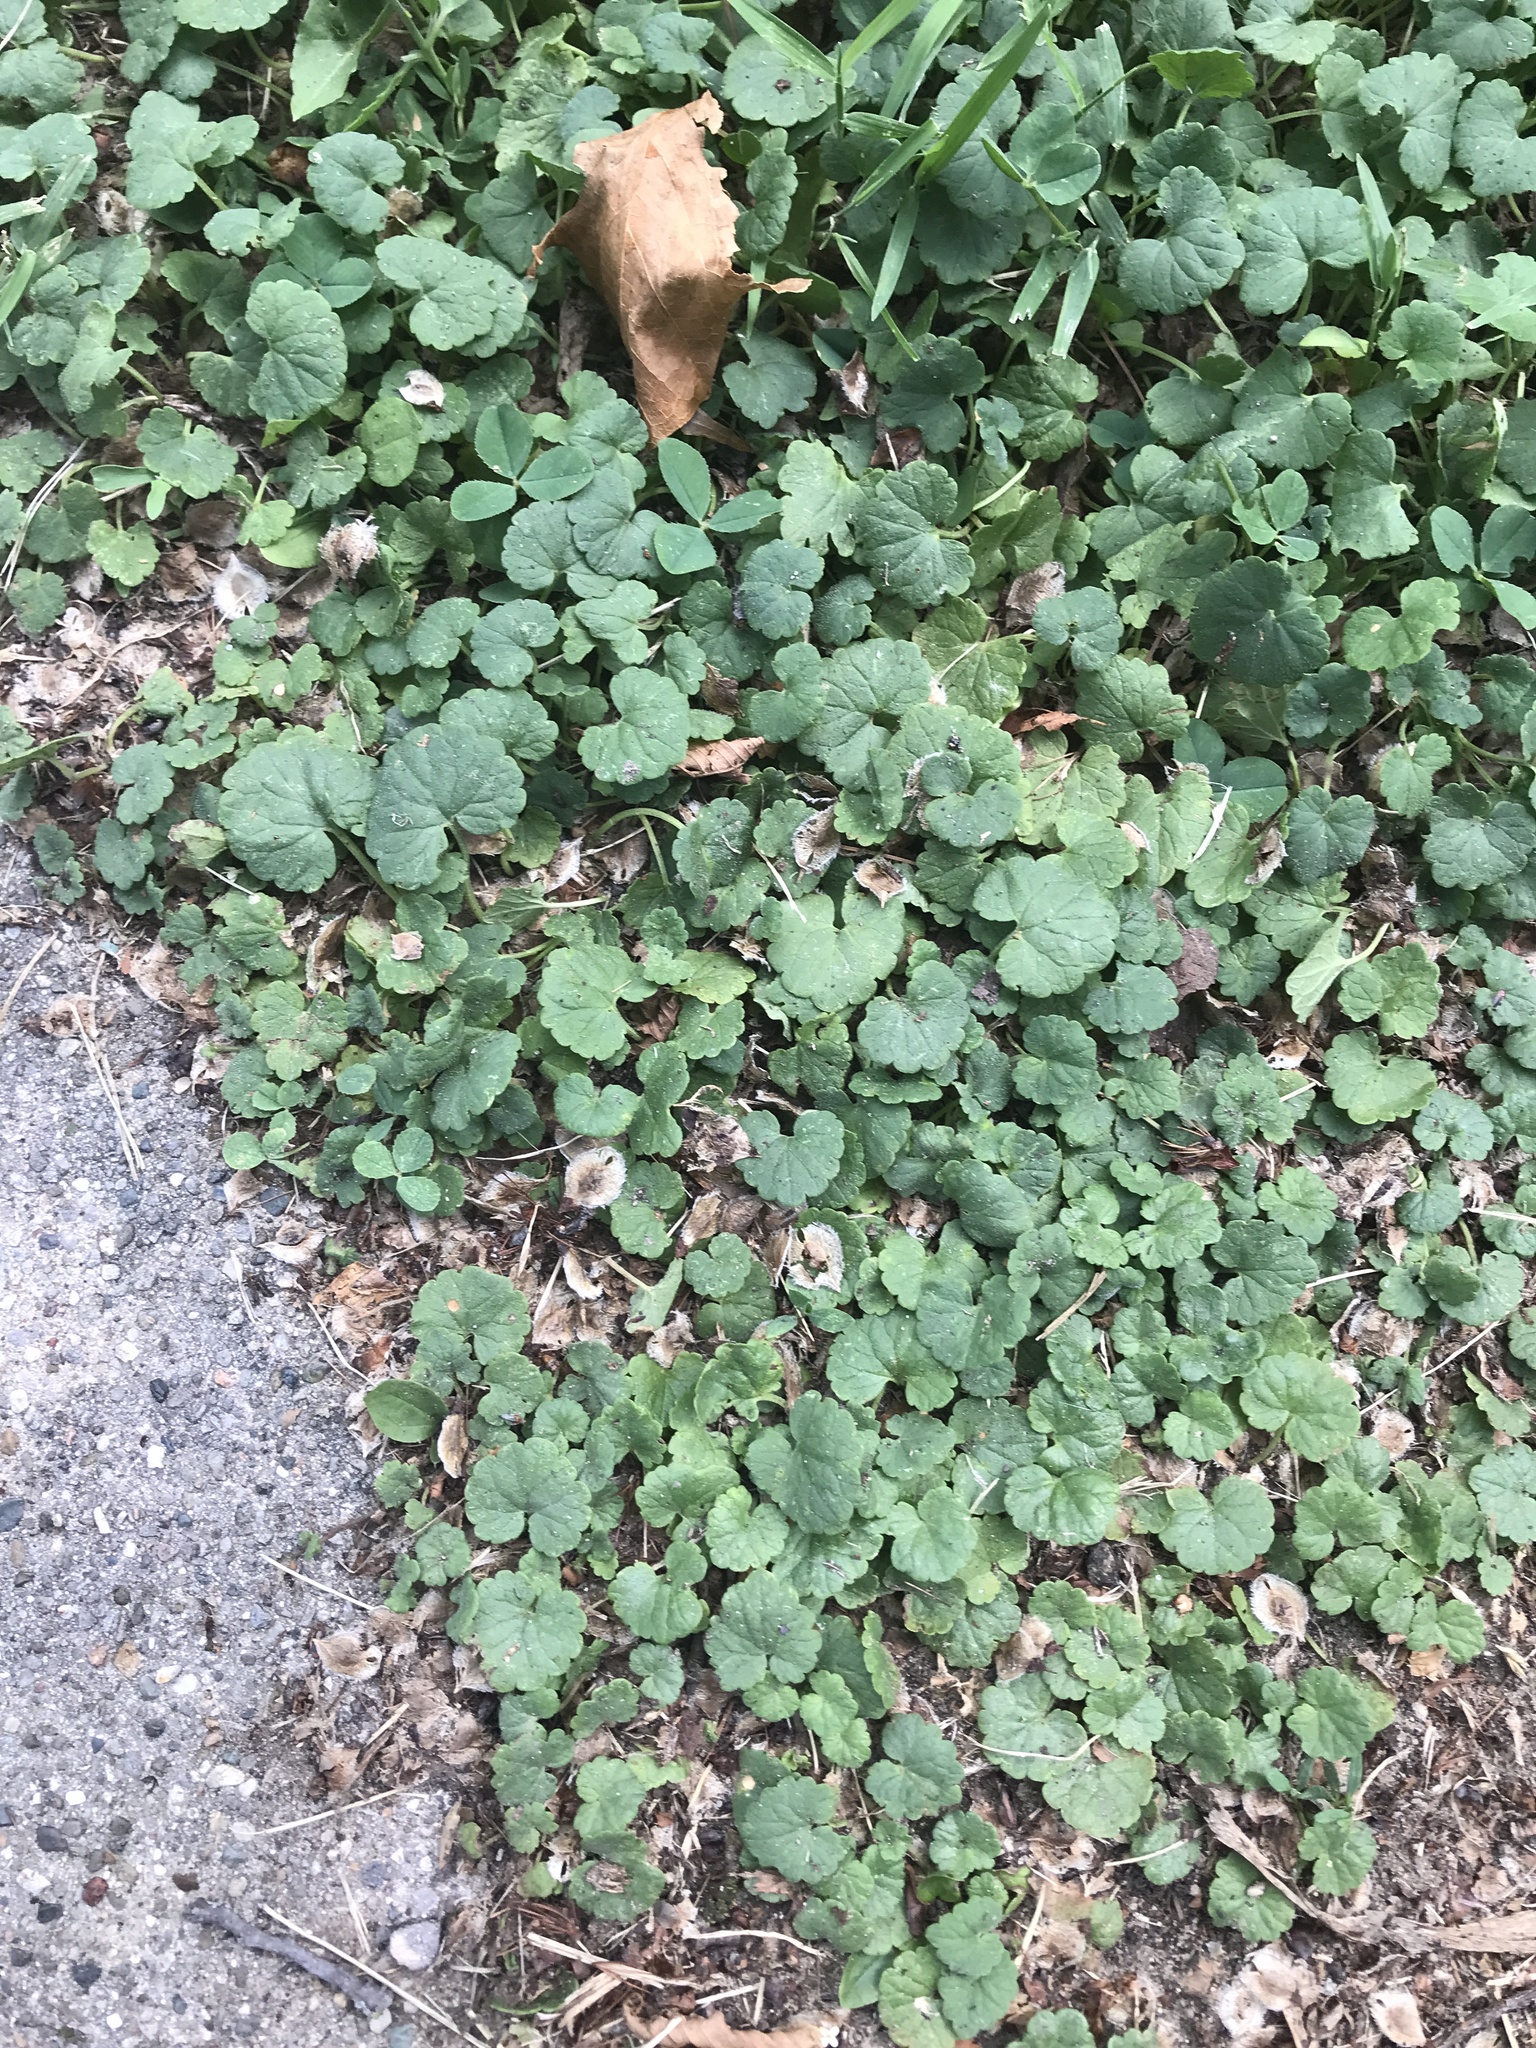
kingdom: Plantae
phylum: Tracheophyta
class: Magnoliopsida
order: Lamiales
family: Lamiaceae
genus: Glechoma
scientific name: Glechoma hederacea
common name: Ground ivy
